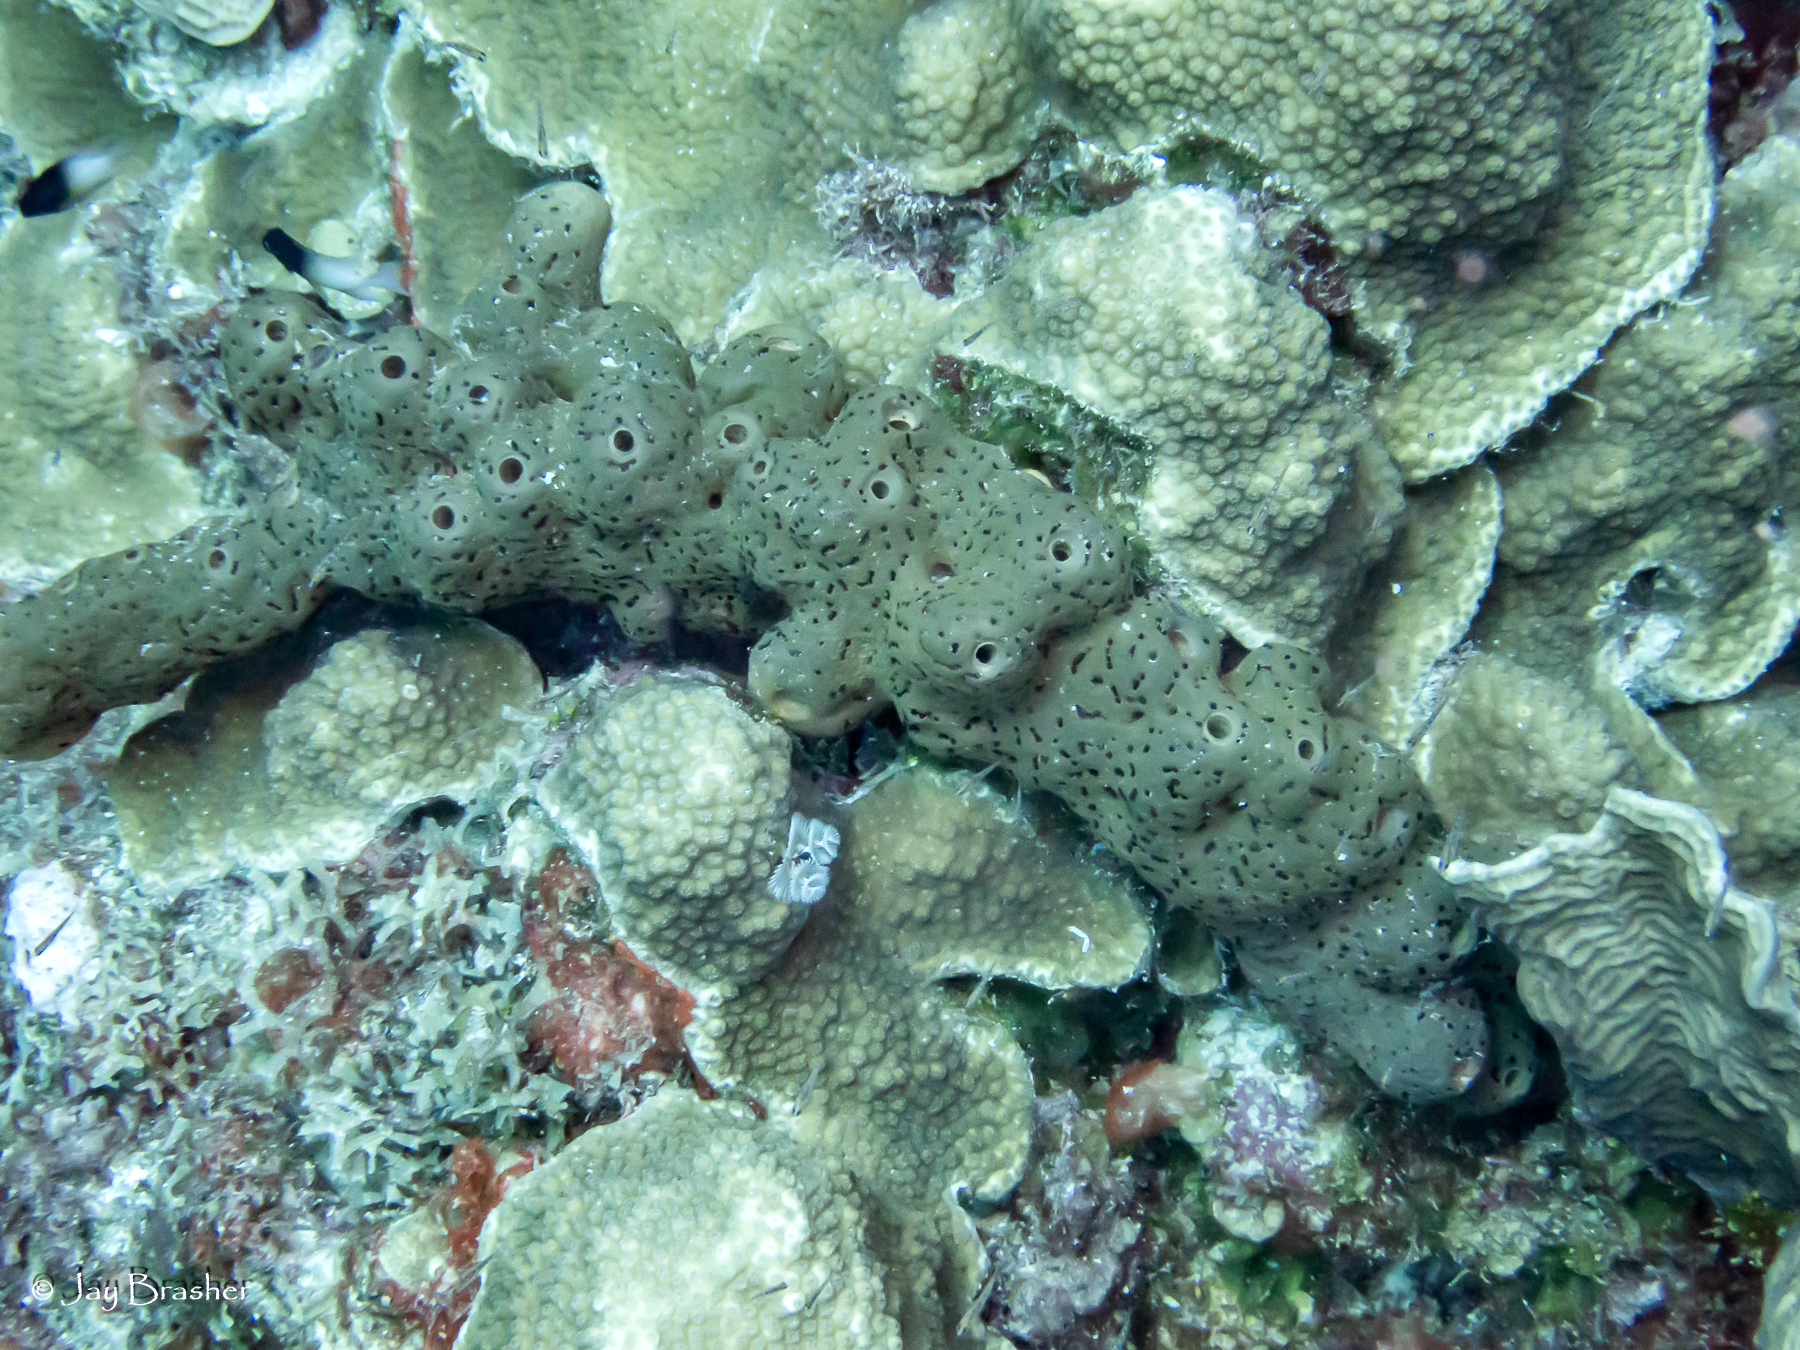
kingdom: Animalia
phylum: Porifera
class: Demospongiae
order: Agelasida
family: Agelasidae
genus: Agelas
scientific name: Agelas conifera
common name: Brown tube sponge
